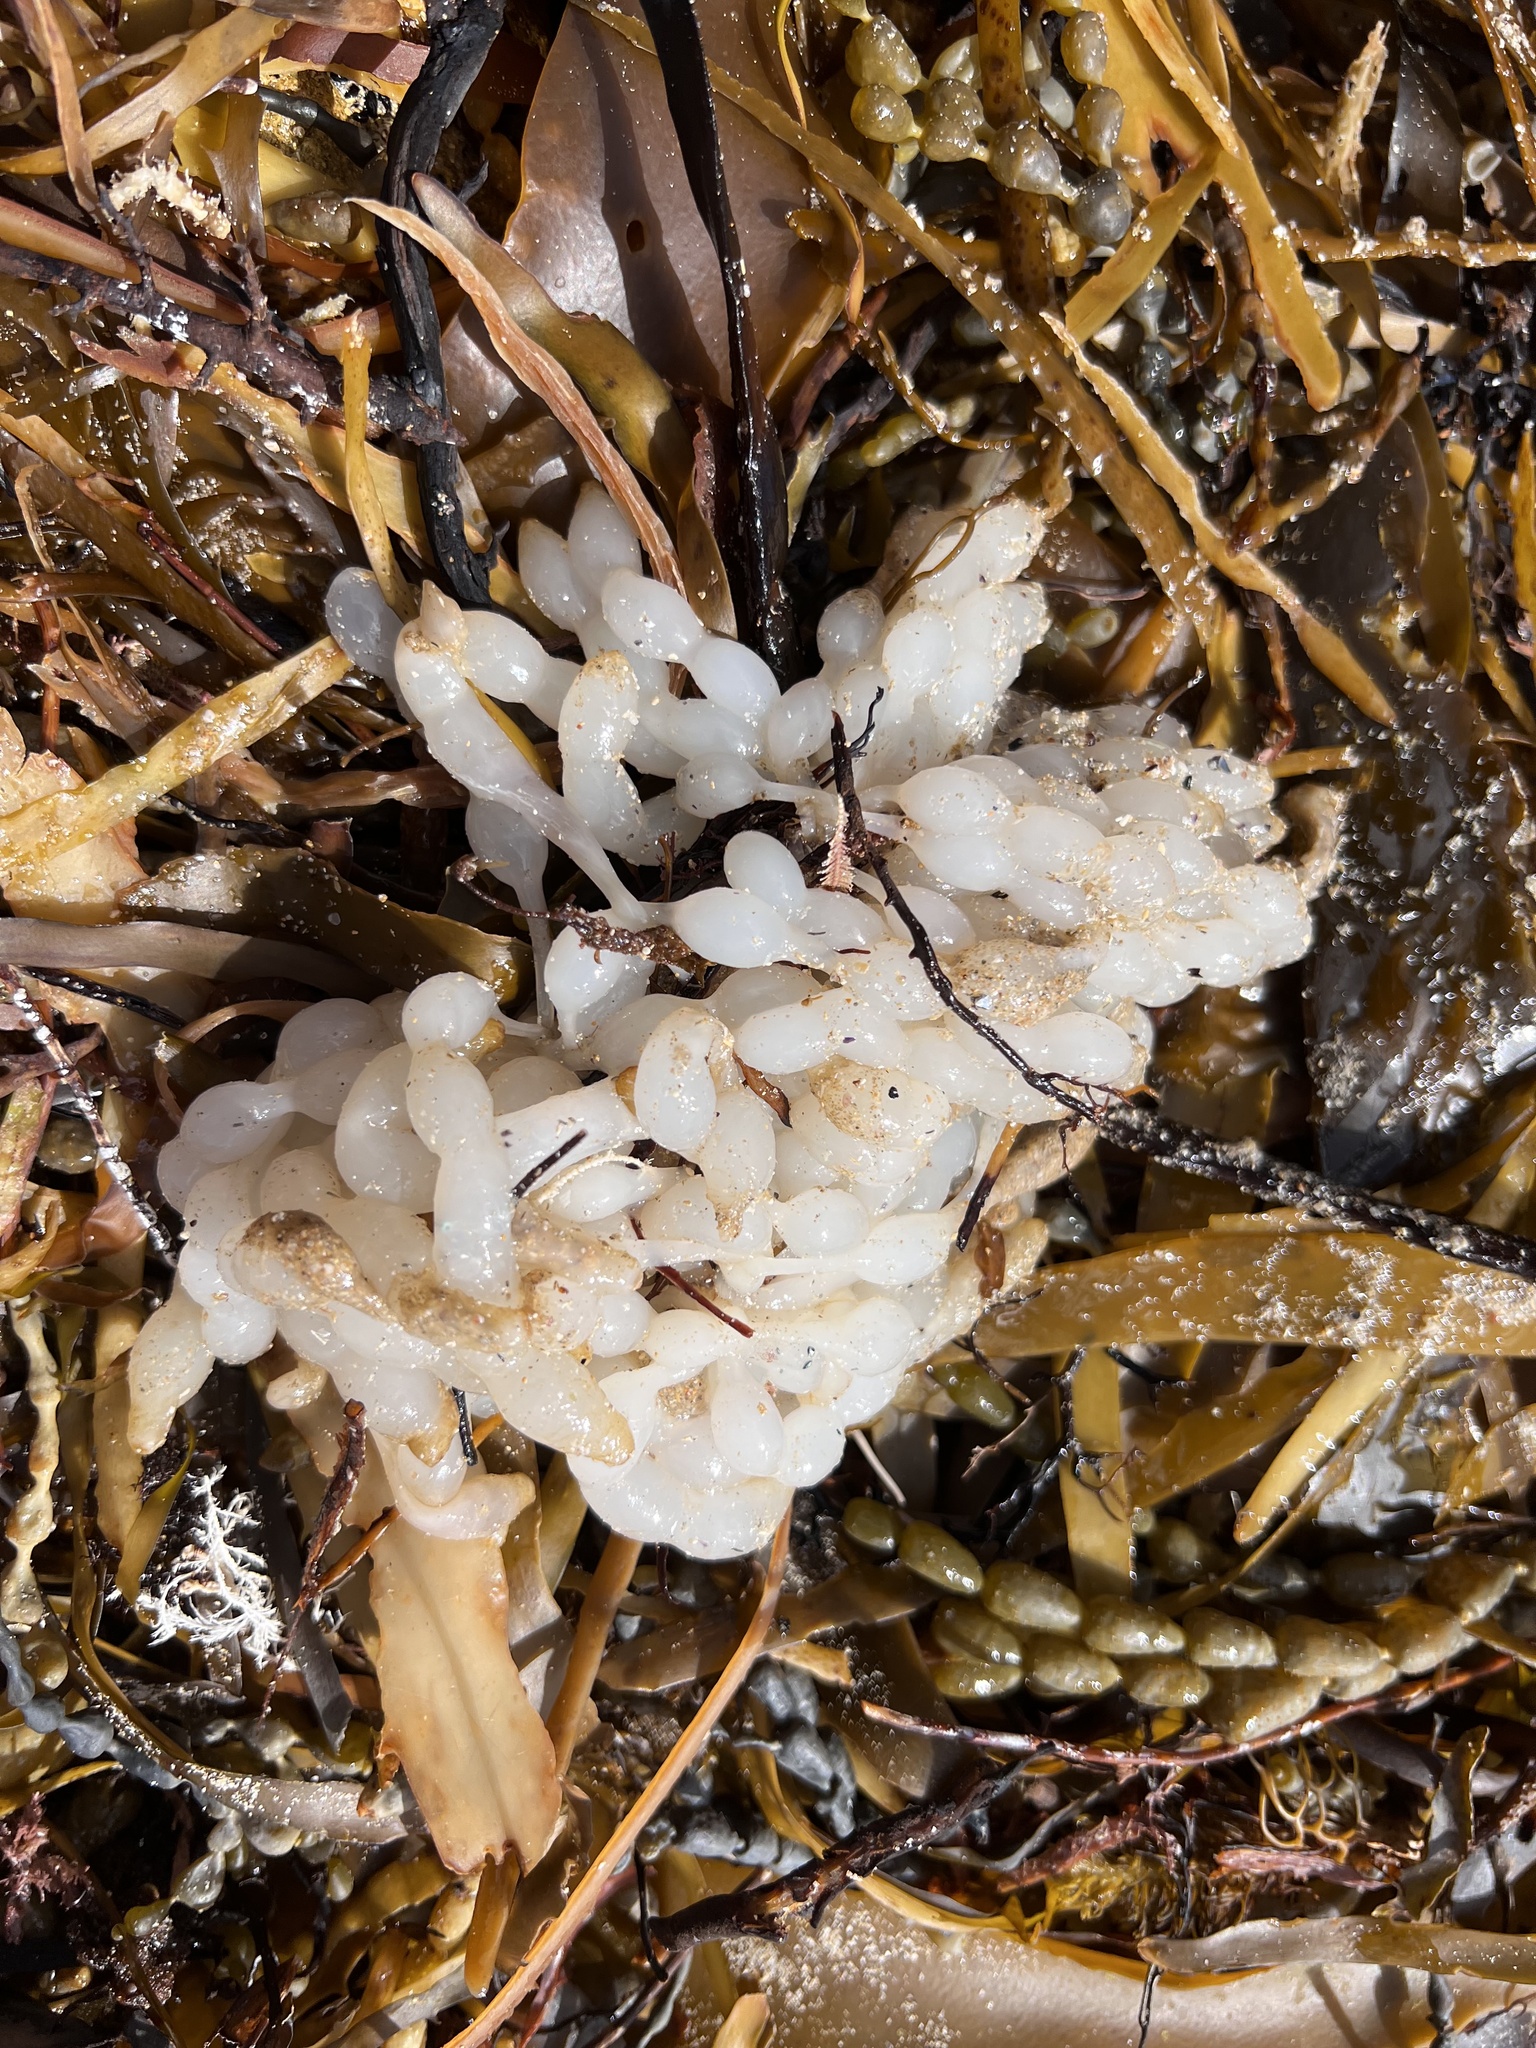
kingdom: Animalia
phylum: Mollusca
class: Cephalopoda
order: Myopsida
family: Loliginidae
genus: Sepioteuthis
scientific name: Sepioteuthis australis
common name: Southern reef squid
